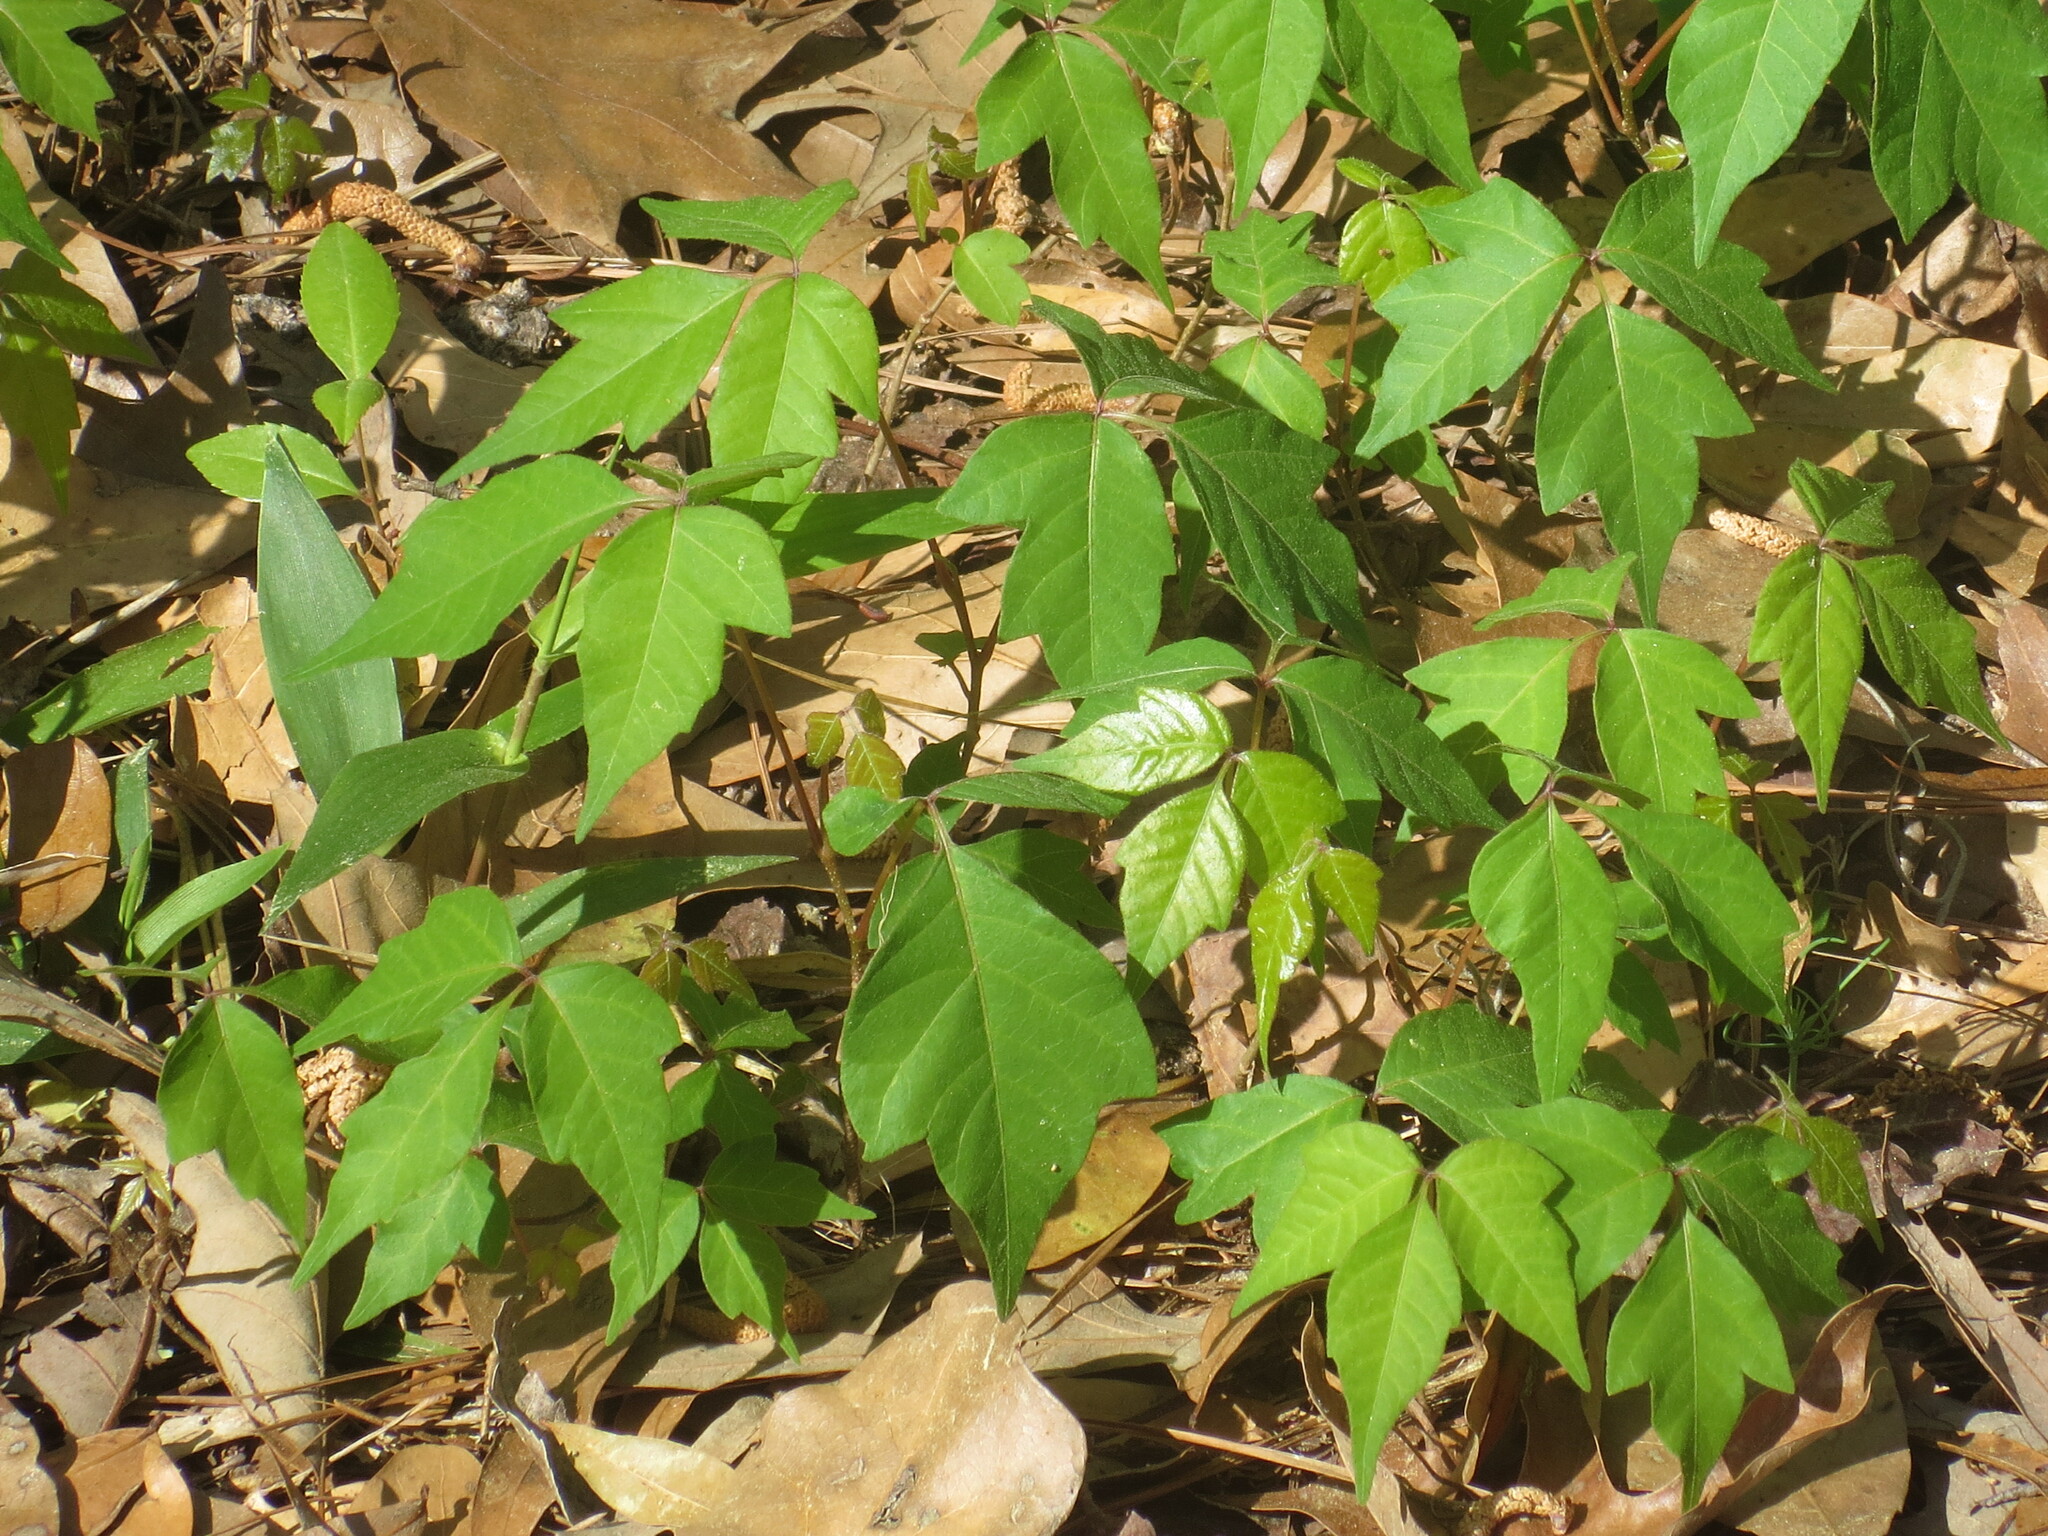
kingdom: Plantae
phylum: Tracheophyta
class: Magnoliopsida
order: Sapindales
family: Anacardiaceae
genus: Toxicodendron
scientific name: Toxicodendron radicans
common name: Poison ivy
